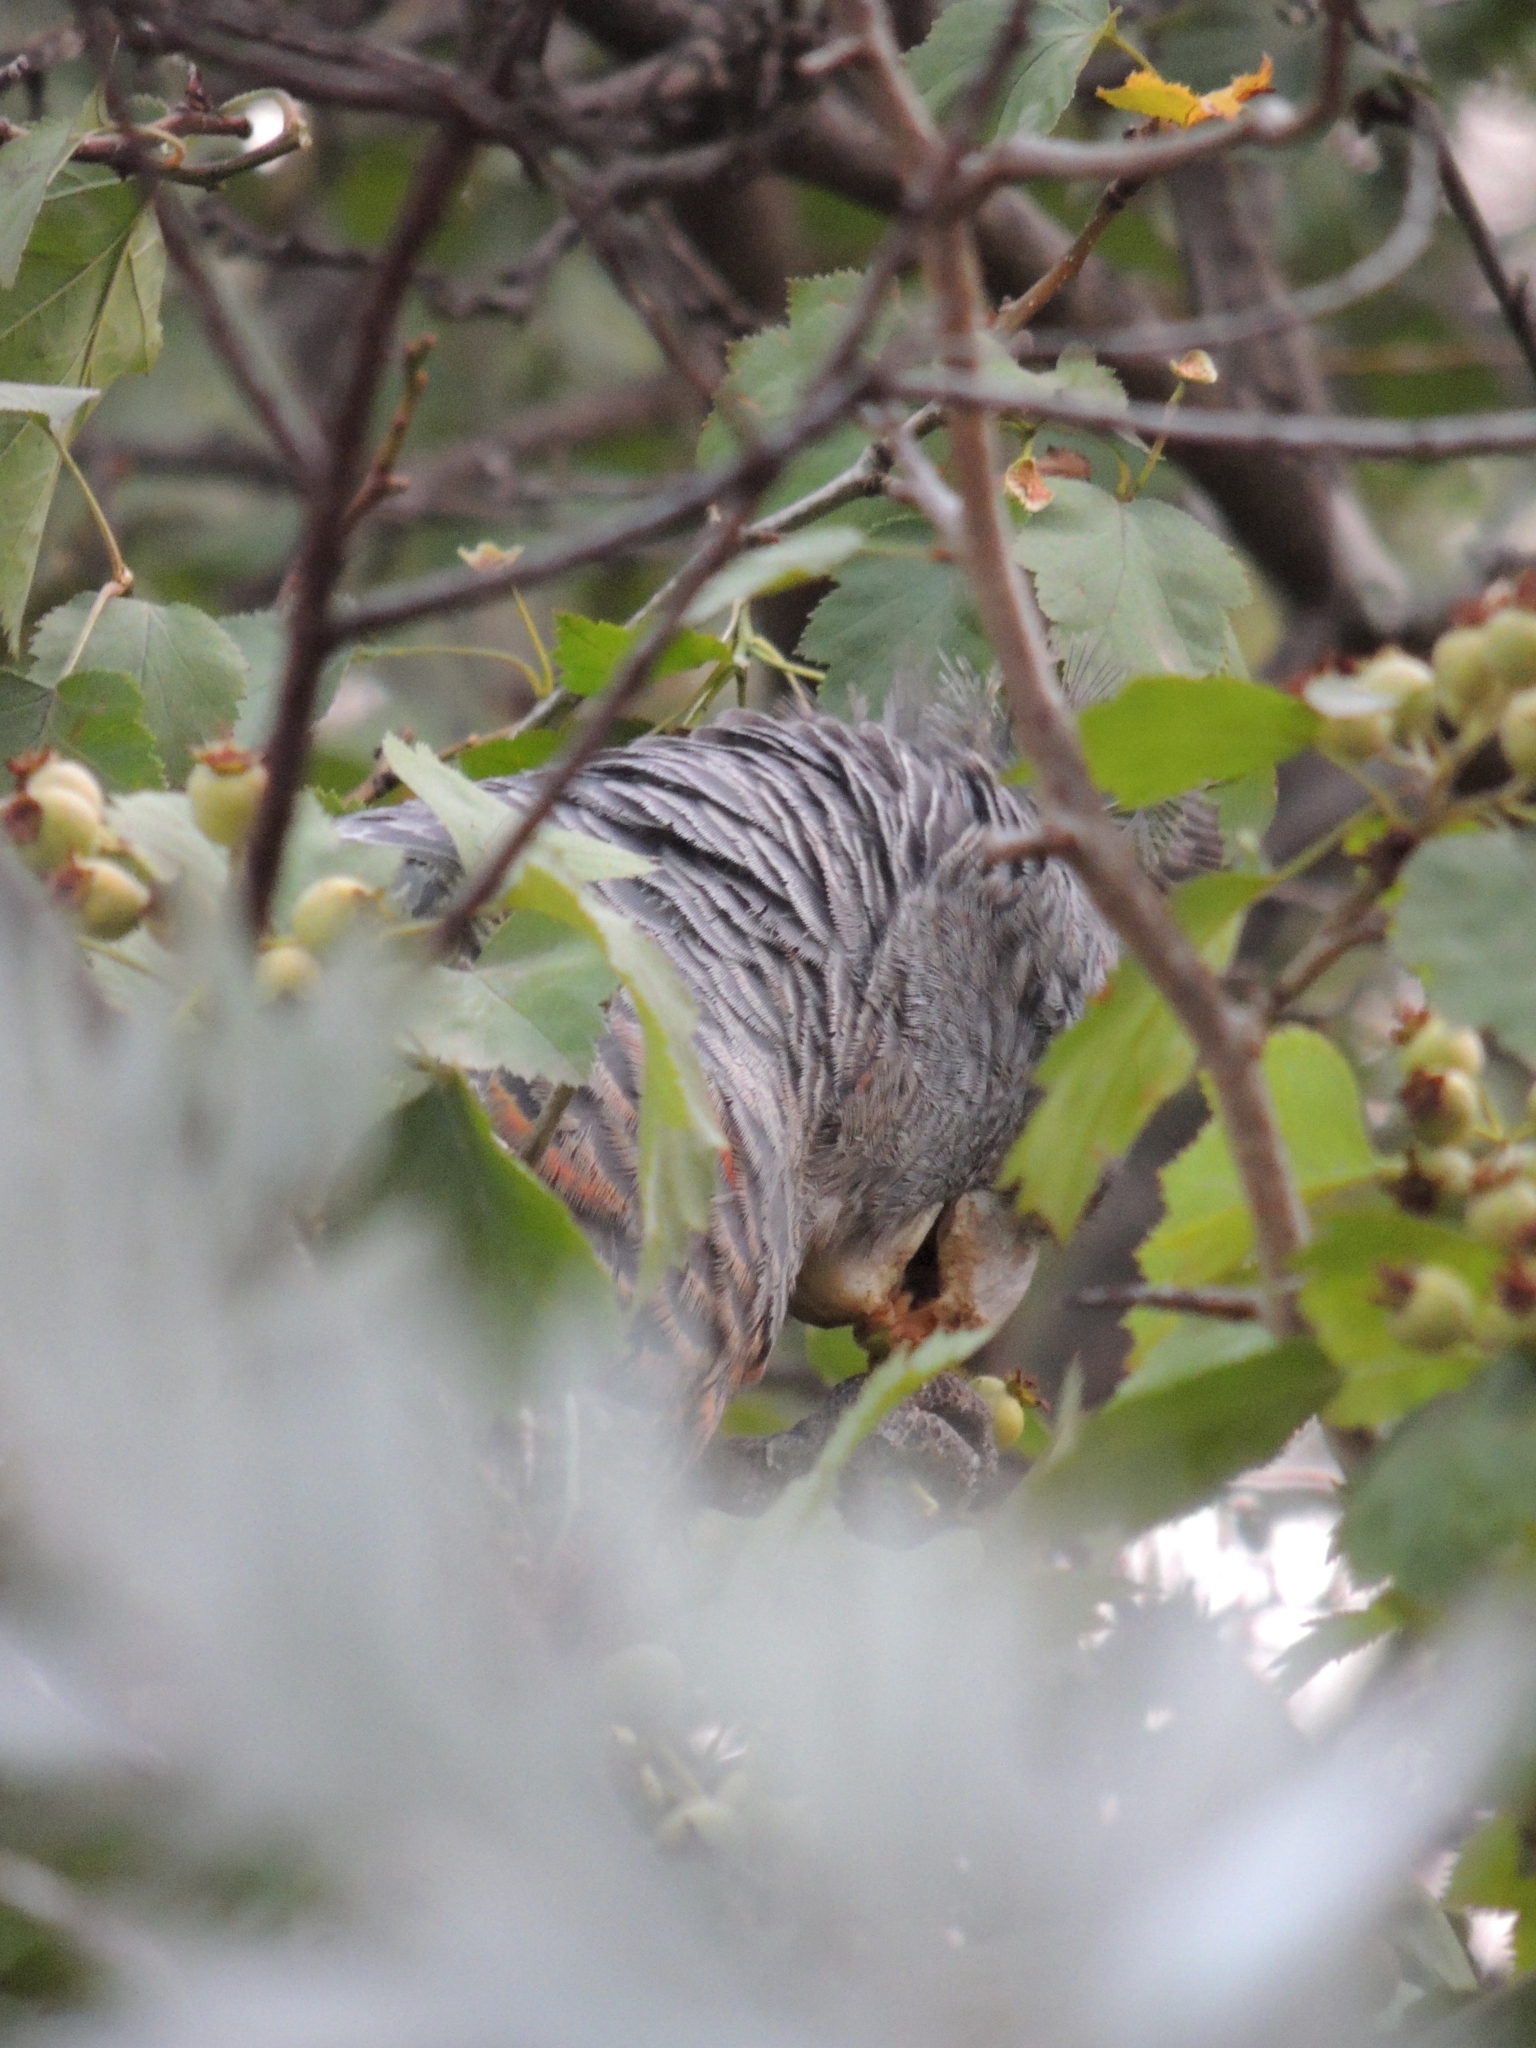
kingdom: Animalia
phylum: Chordata
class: Aves
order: Psittaciformes
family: Psittacidae
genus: Callocephalon
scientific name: Callocephalon fimbriatum
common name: Gang-gang cockatoo
